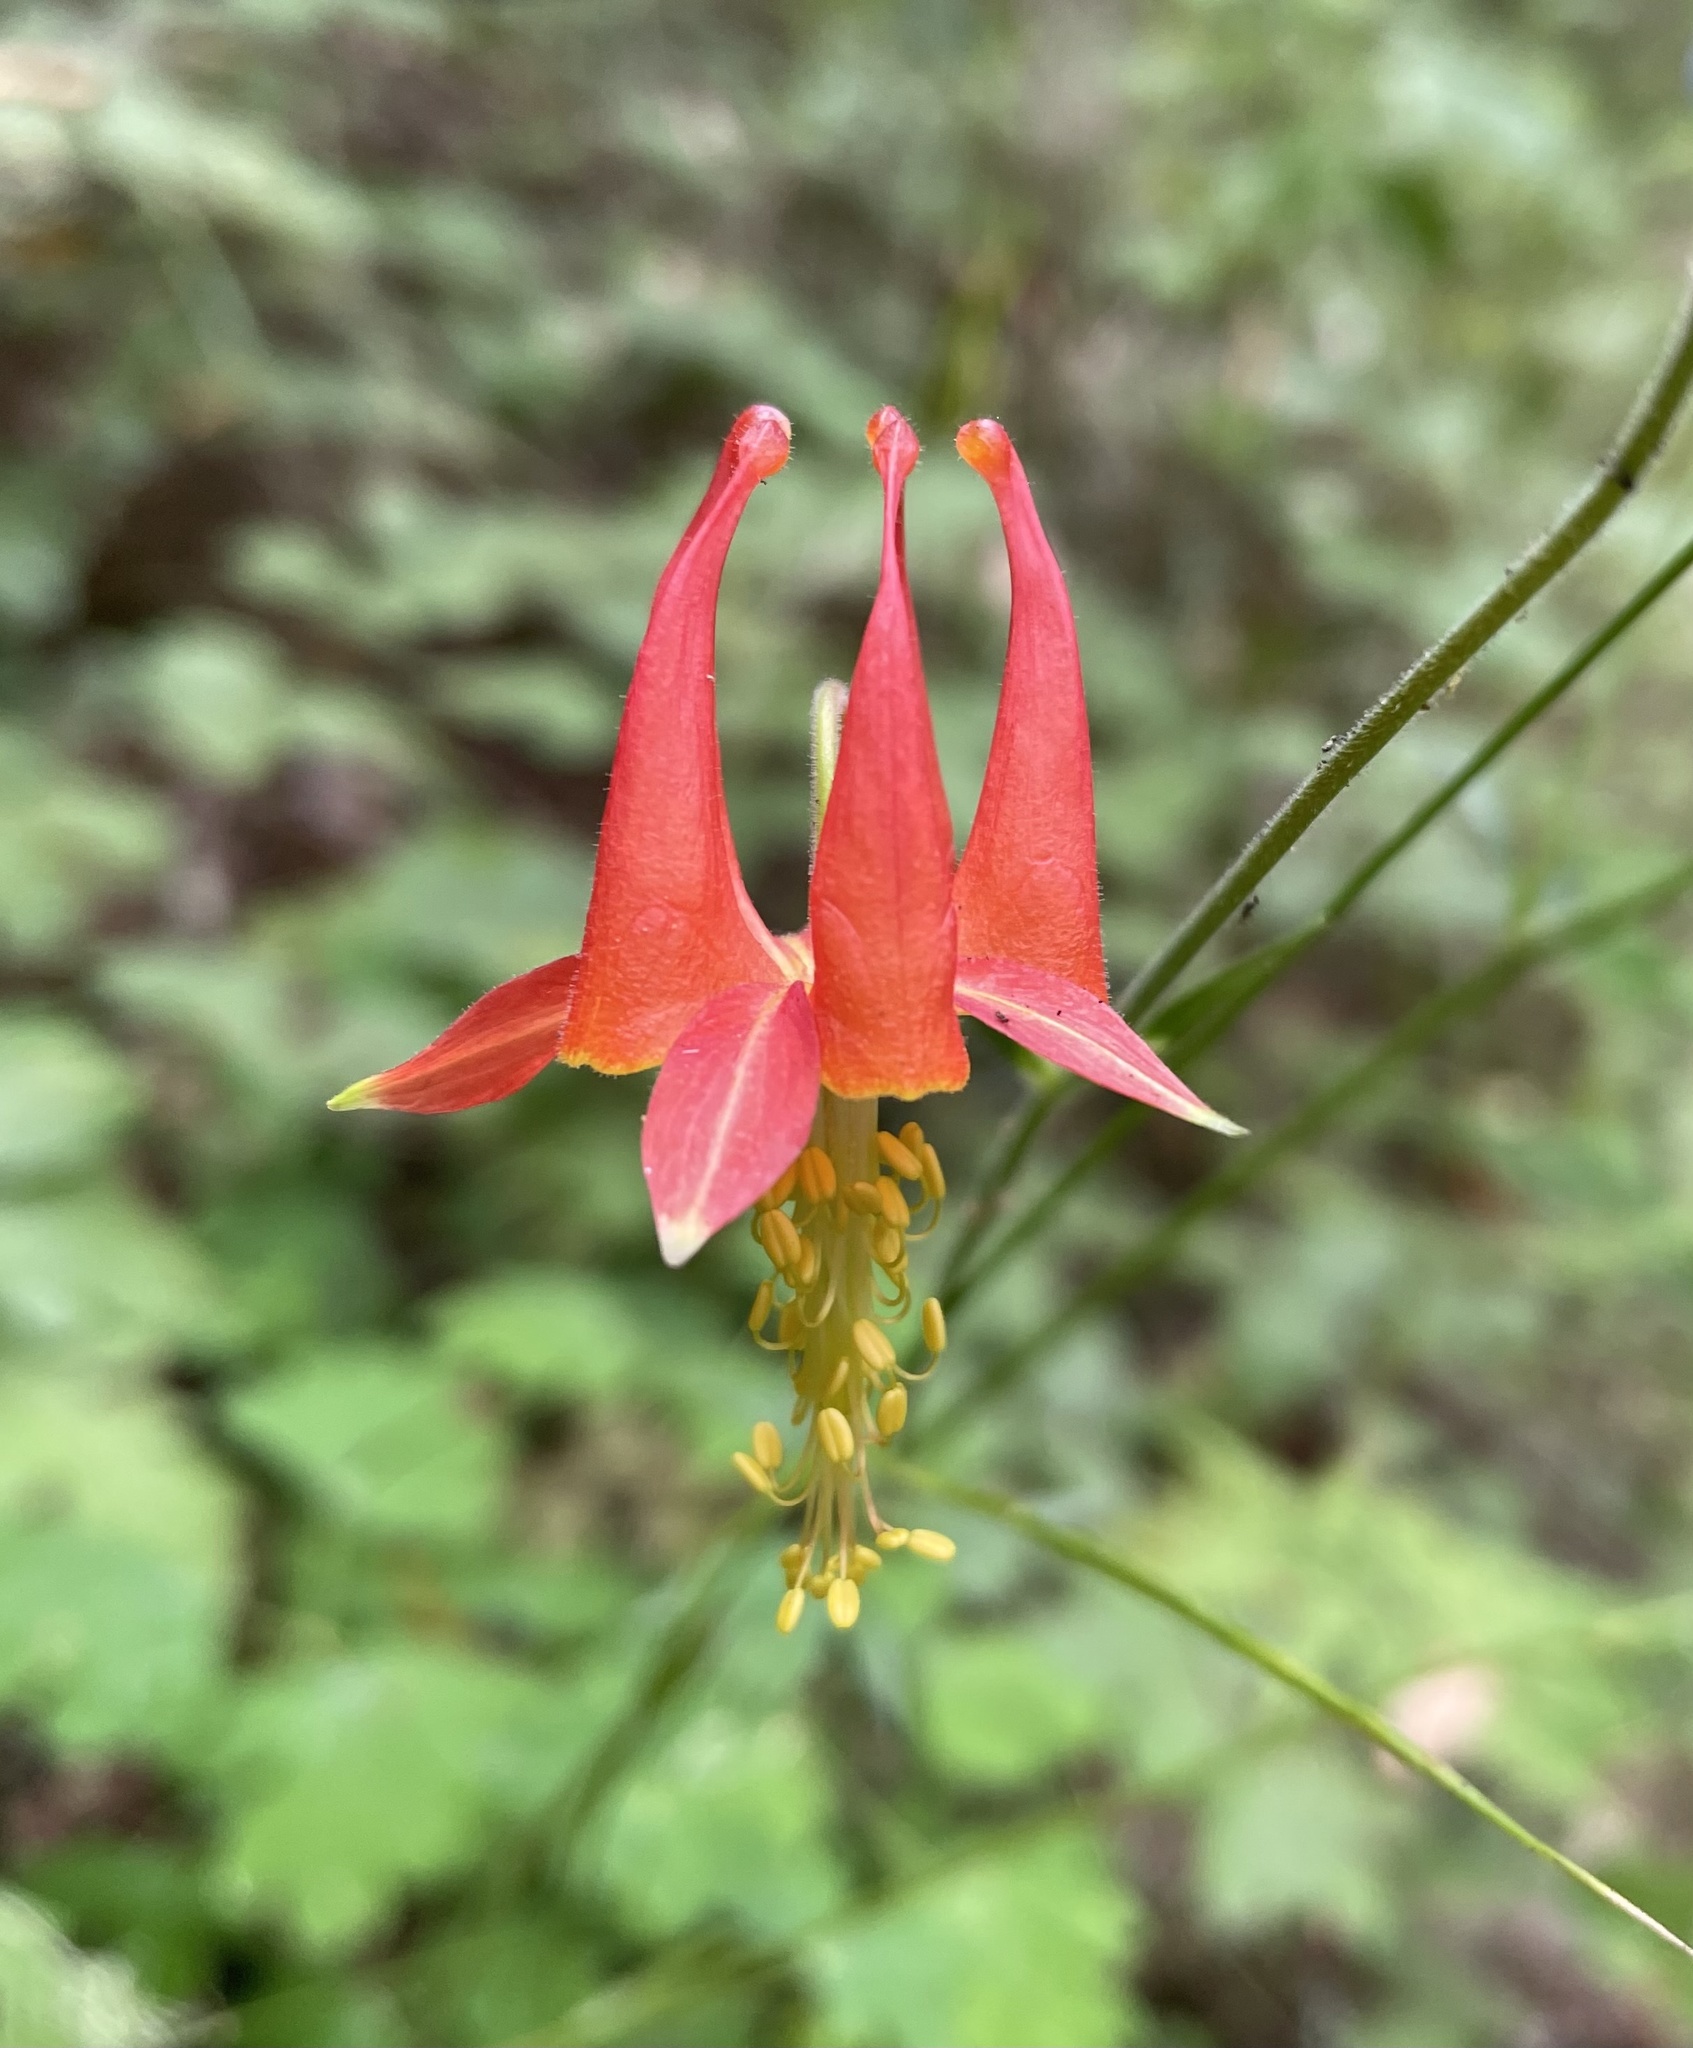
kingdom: Plantae
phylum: Tracheophyta
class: Magnoliopsida
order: Ranunculales
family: Ranunculaceae
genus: Aquilegia
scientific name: Aquilegia formosa
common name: Sitka columbine
